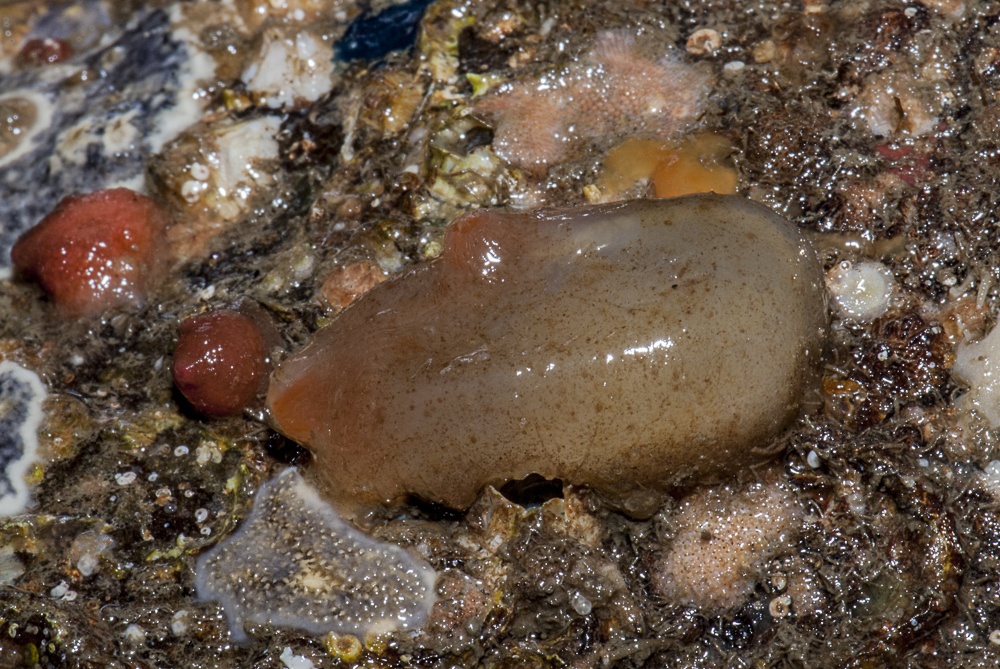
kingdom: Animalia
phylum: Chordata
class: Ascidiacea
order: Phlebobranchia
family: Corellidae
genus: Corella
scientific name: Corella eumyota
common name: Orange-tipped sea squirt
